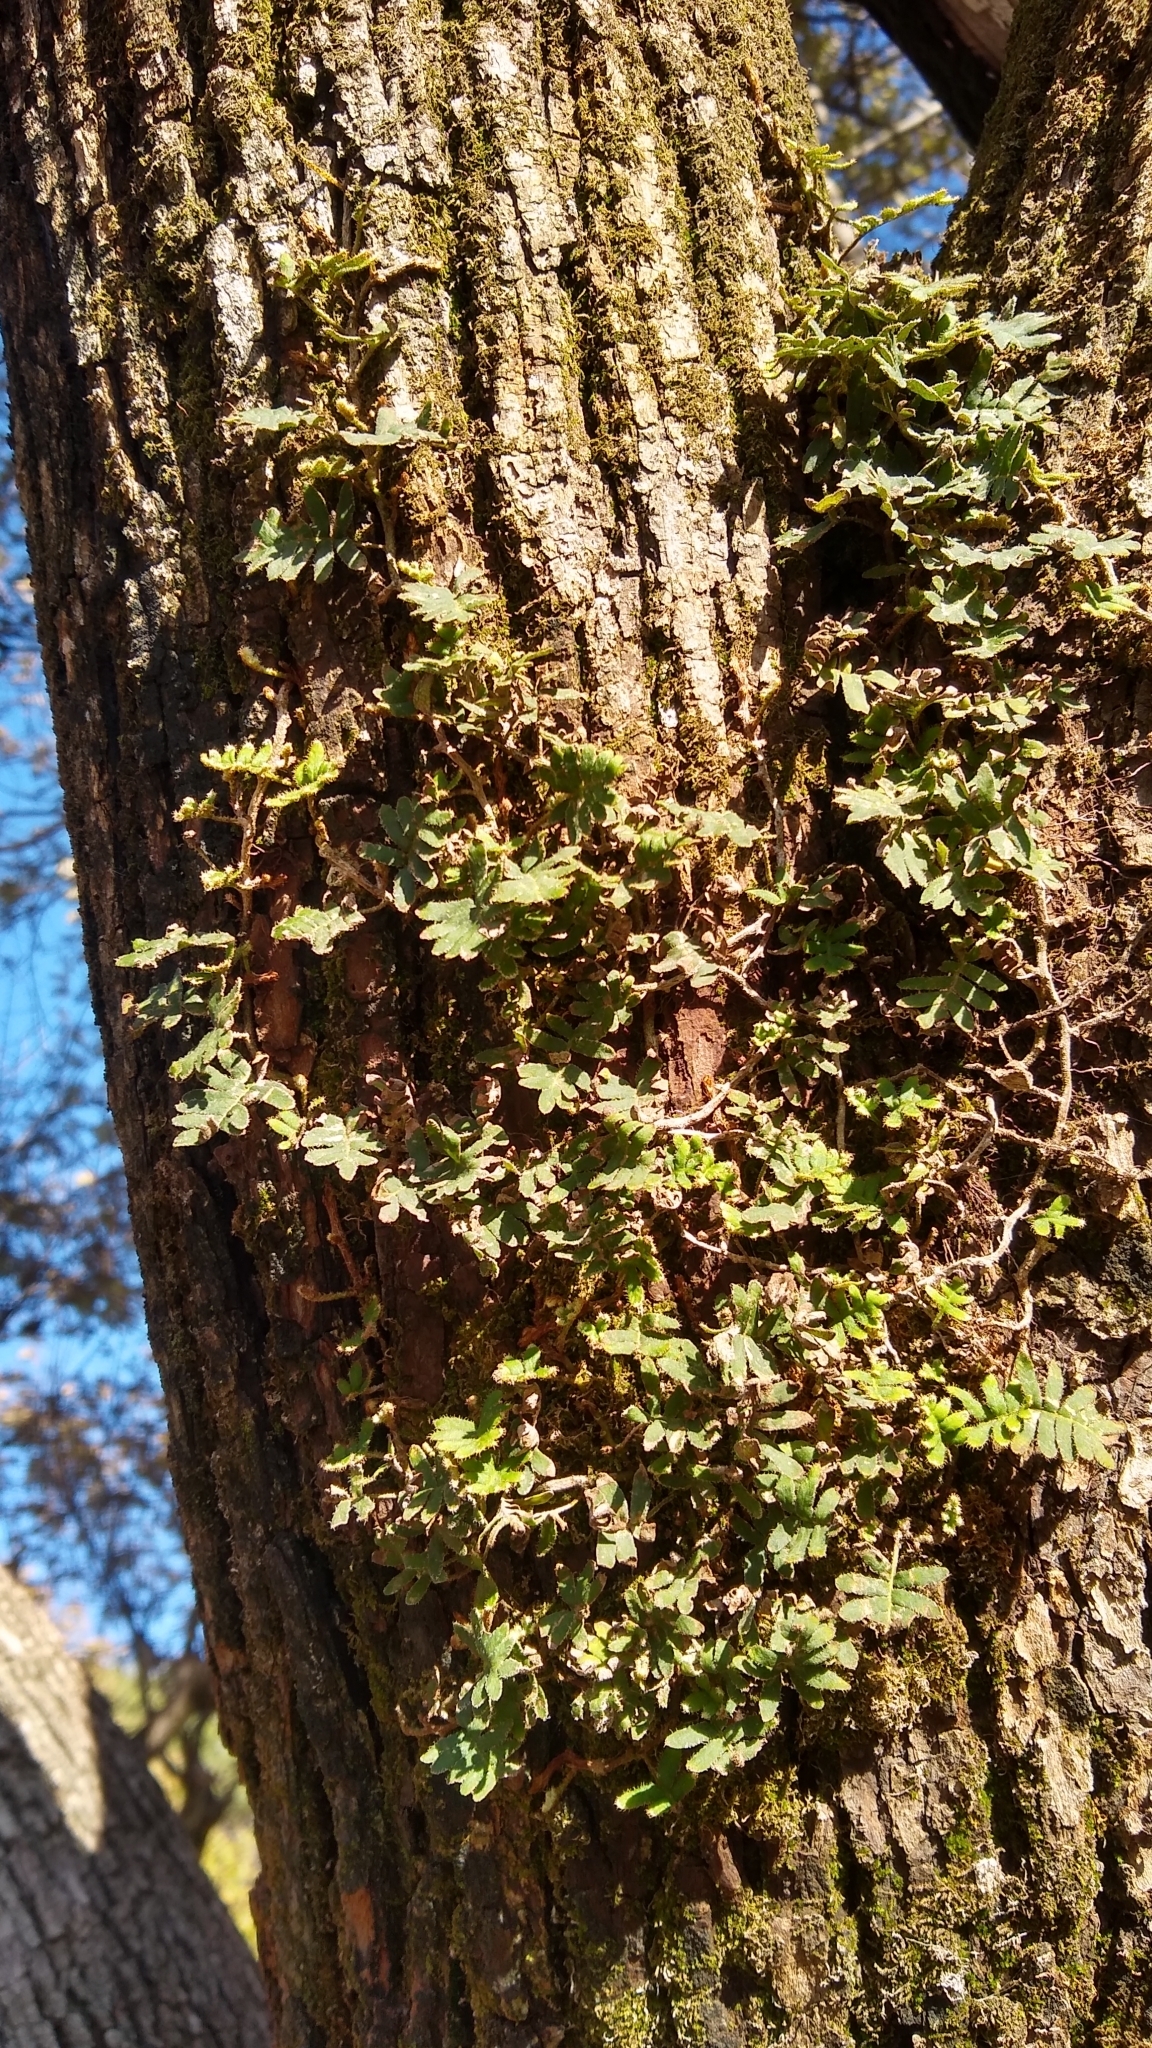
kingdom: Plantae
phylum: Tracheophyta
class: Polypodiopsida
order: Polypodiales
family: Polypodiaceae
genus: Pleopeltis
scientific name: Pleopeltis minima
